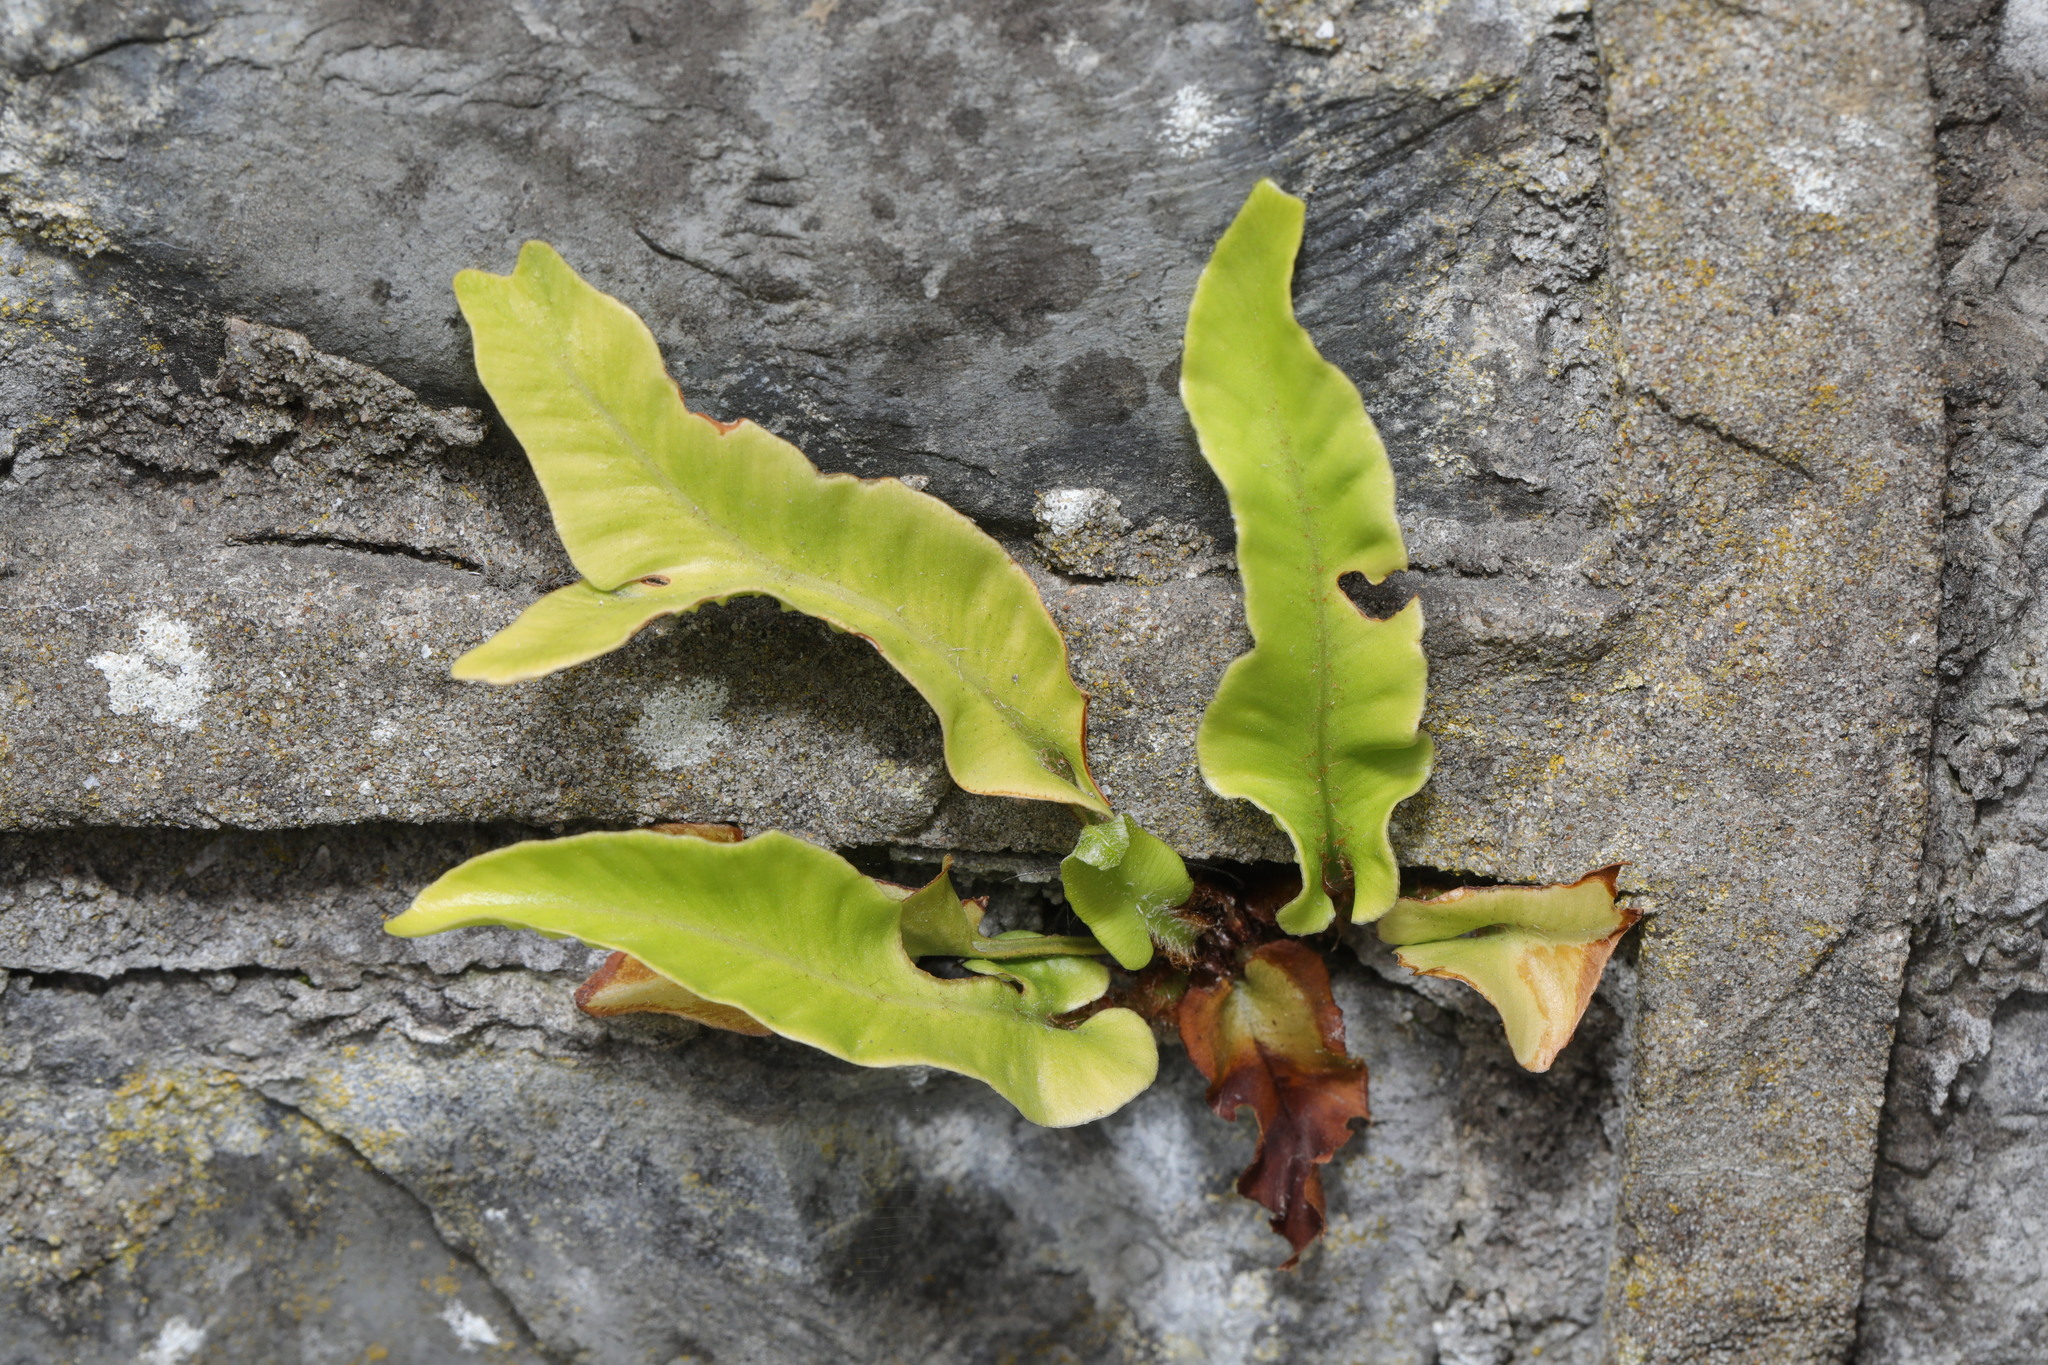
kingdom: Plantae
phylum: Tracheophyta
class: Polypodiopsida
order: Polypodiales
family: Aspleniaceae
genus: Asplenium
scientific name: Asplenium scolopendrium
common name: Hart's-tongue fern
